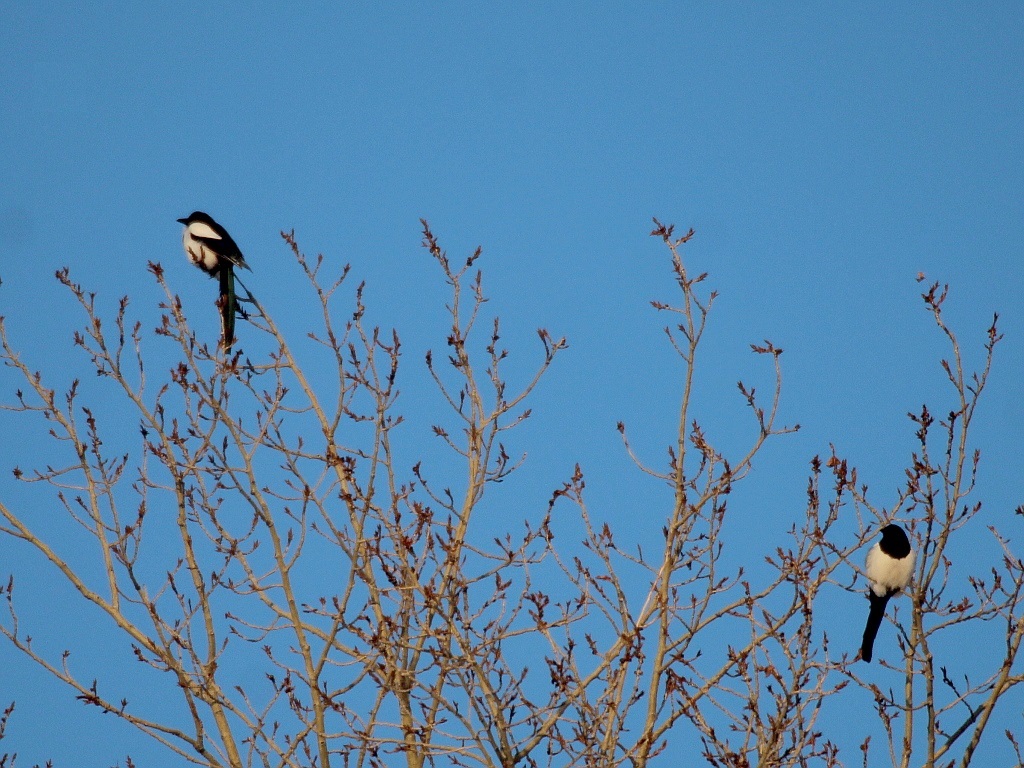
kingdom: Animalia
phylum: Chordata
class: Aves
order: Passeriformes
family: Corvidae
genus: Pica
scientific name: Pica pica
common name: Eurasian magpie
